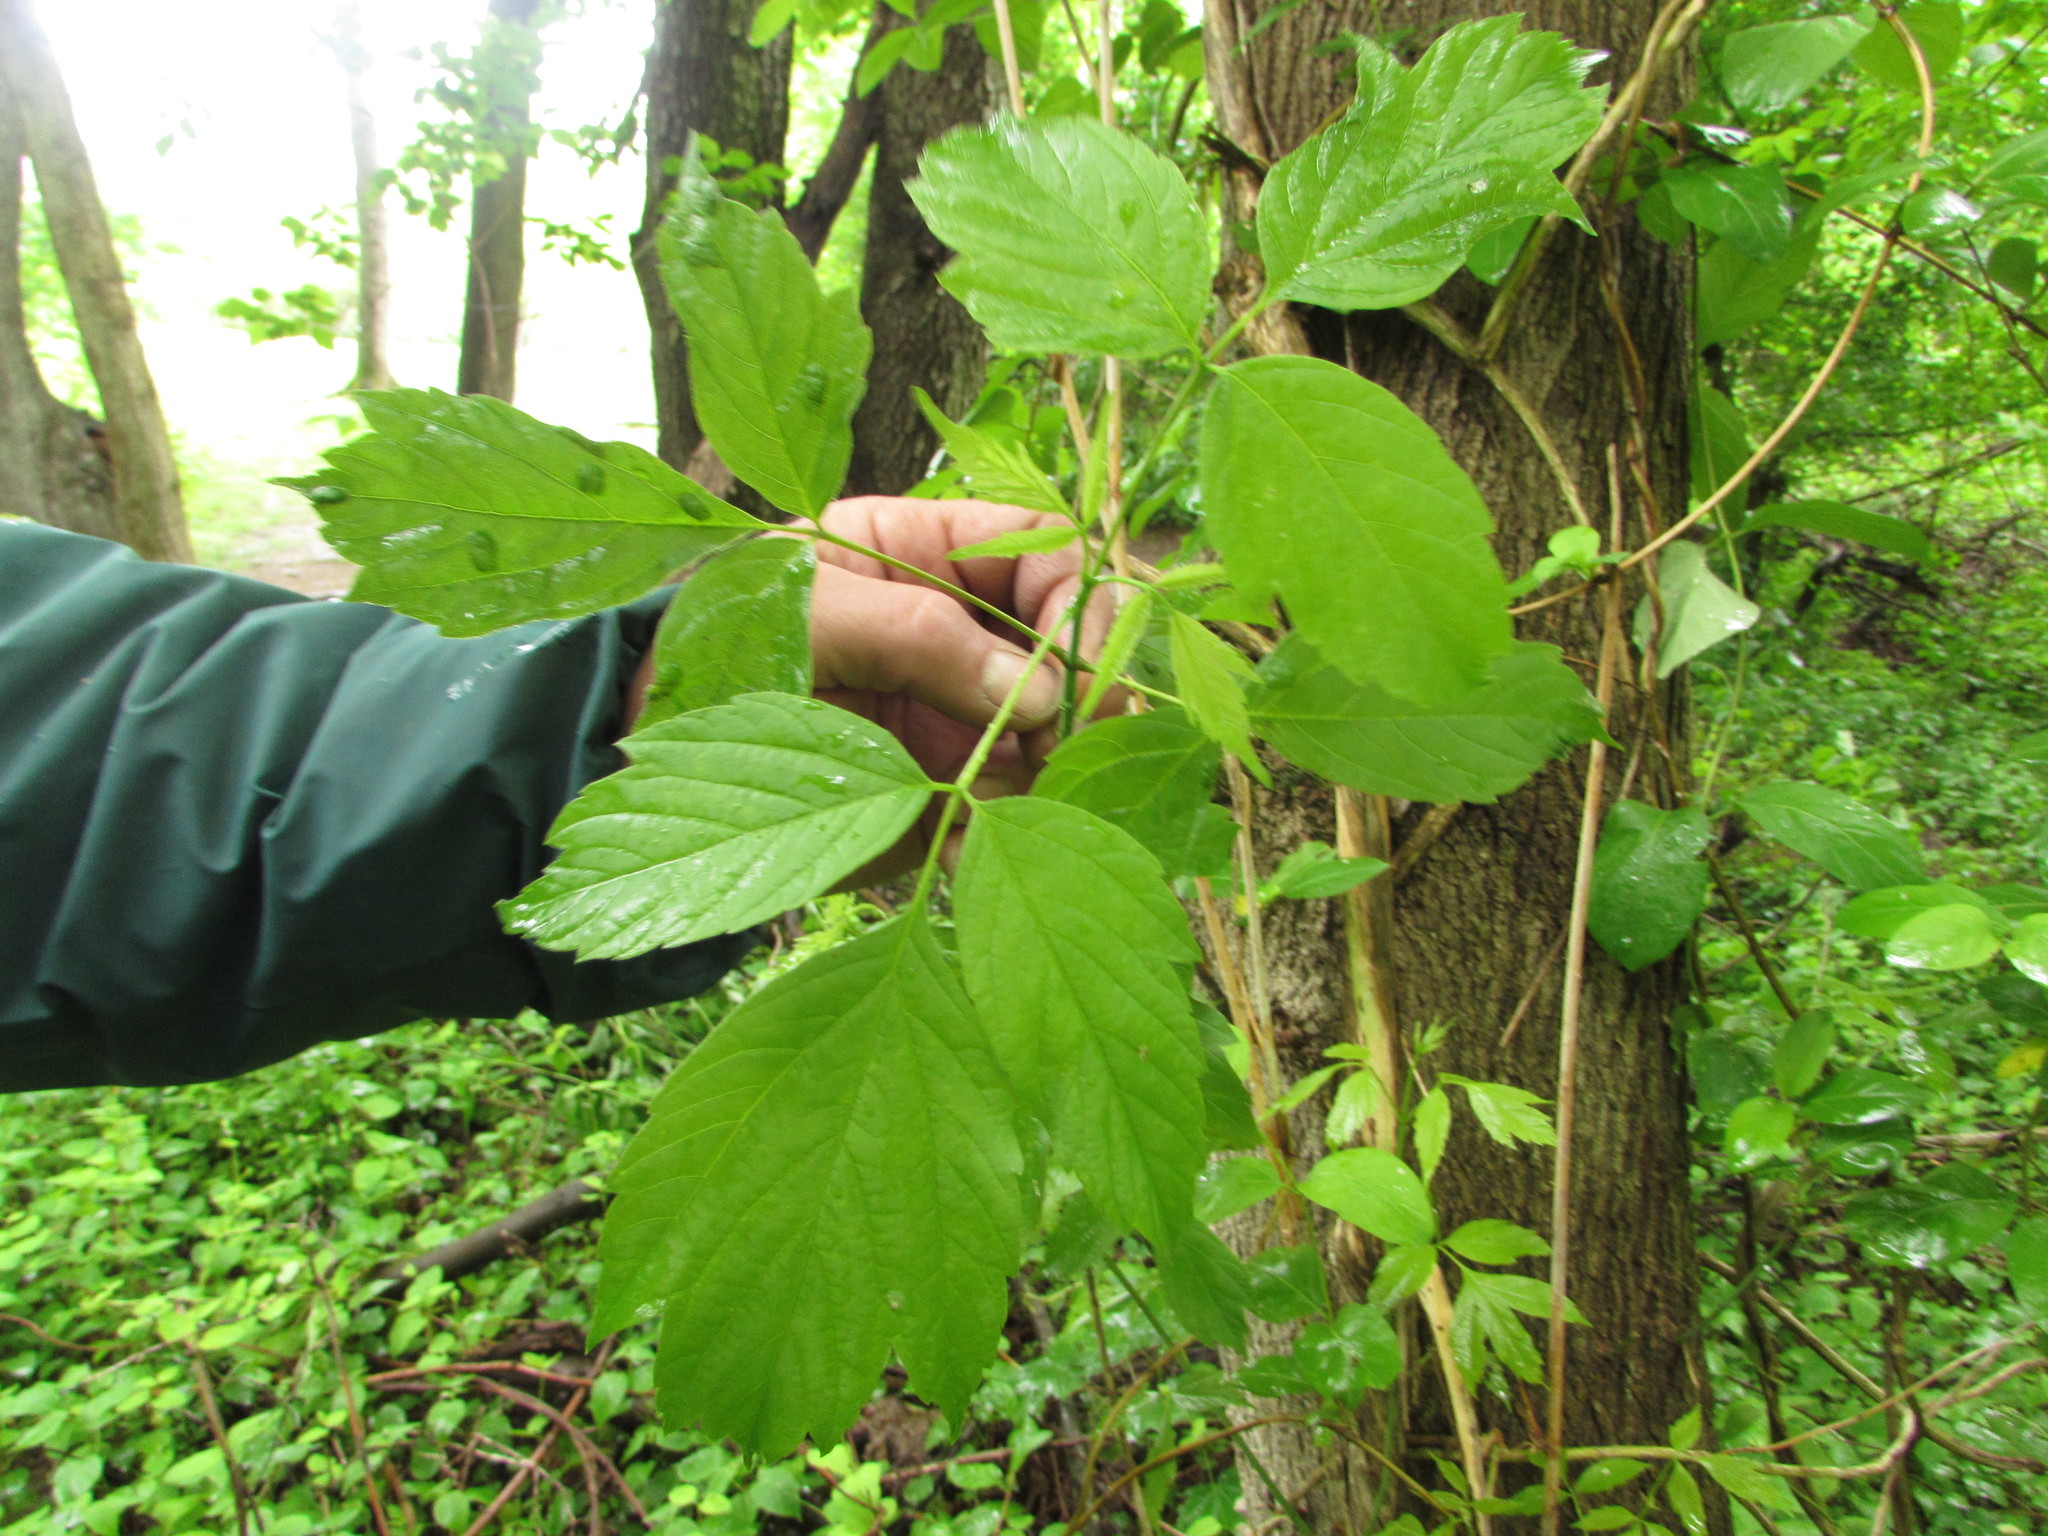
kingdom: Plantae
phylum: Tracheophyta
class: Magnoliopsida
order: Sapindales
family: Sapindaceae
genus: Acer
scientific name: Acer negundo
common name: Ashleaf maple
